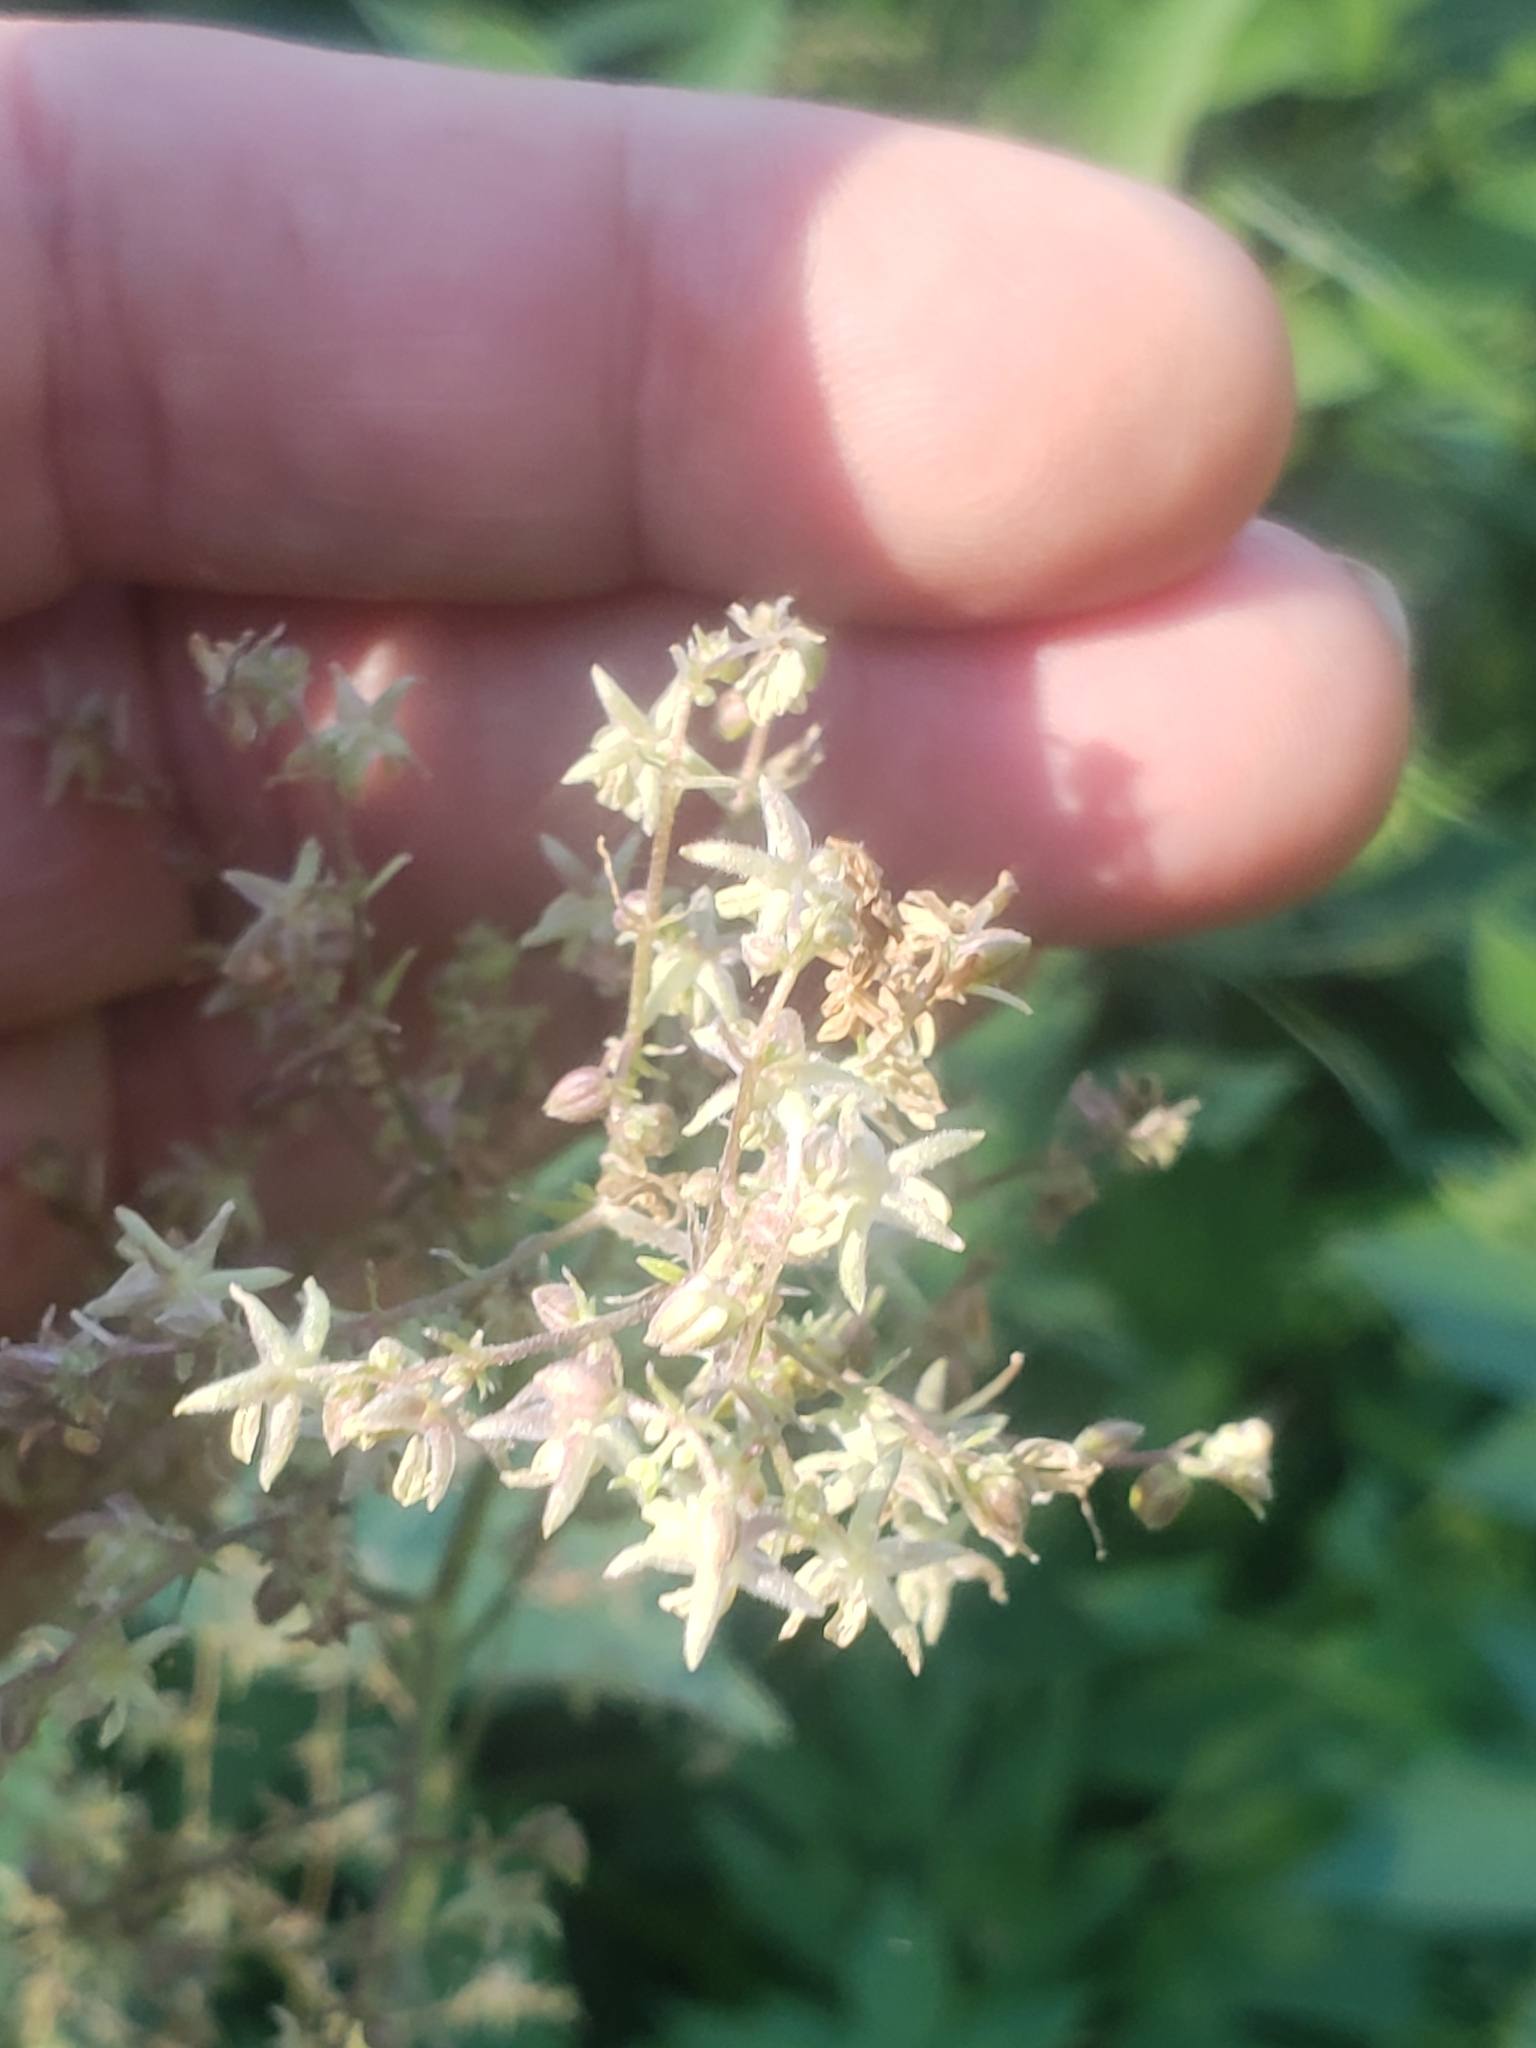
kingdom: Plantae
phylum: Tracheophyta
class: Magnoliopsida
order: Rosales
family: Cannabaceae
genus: Humulus
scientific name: Humulus scandens
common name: Japanese hop
